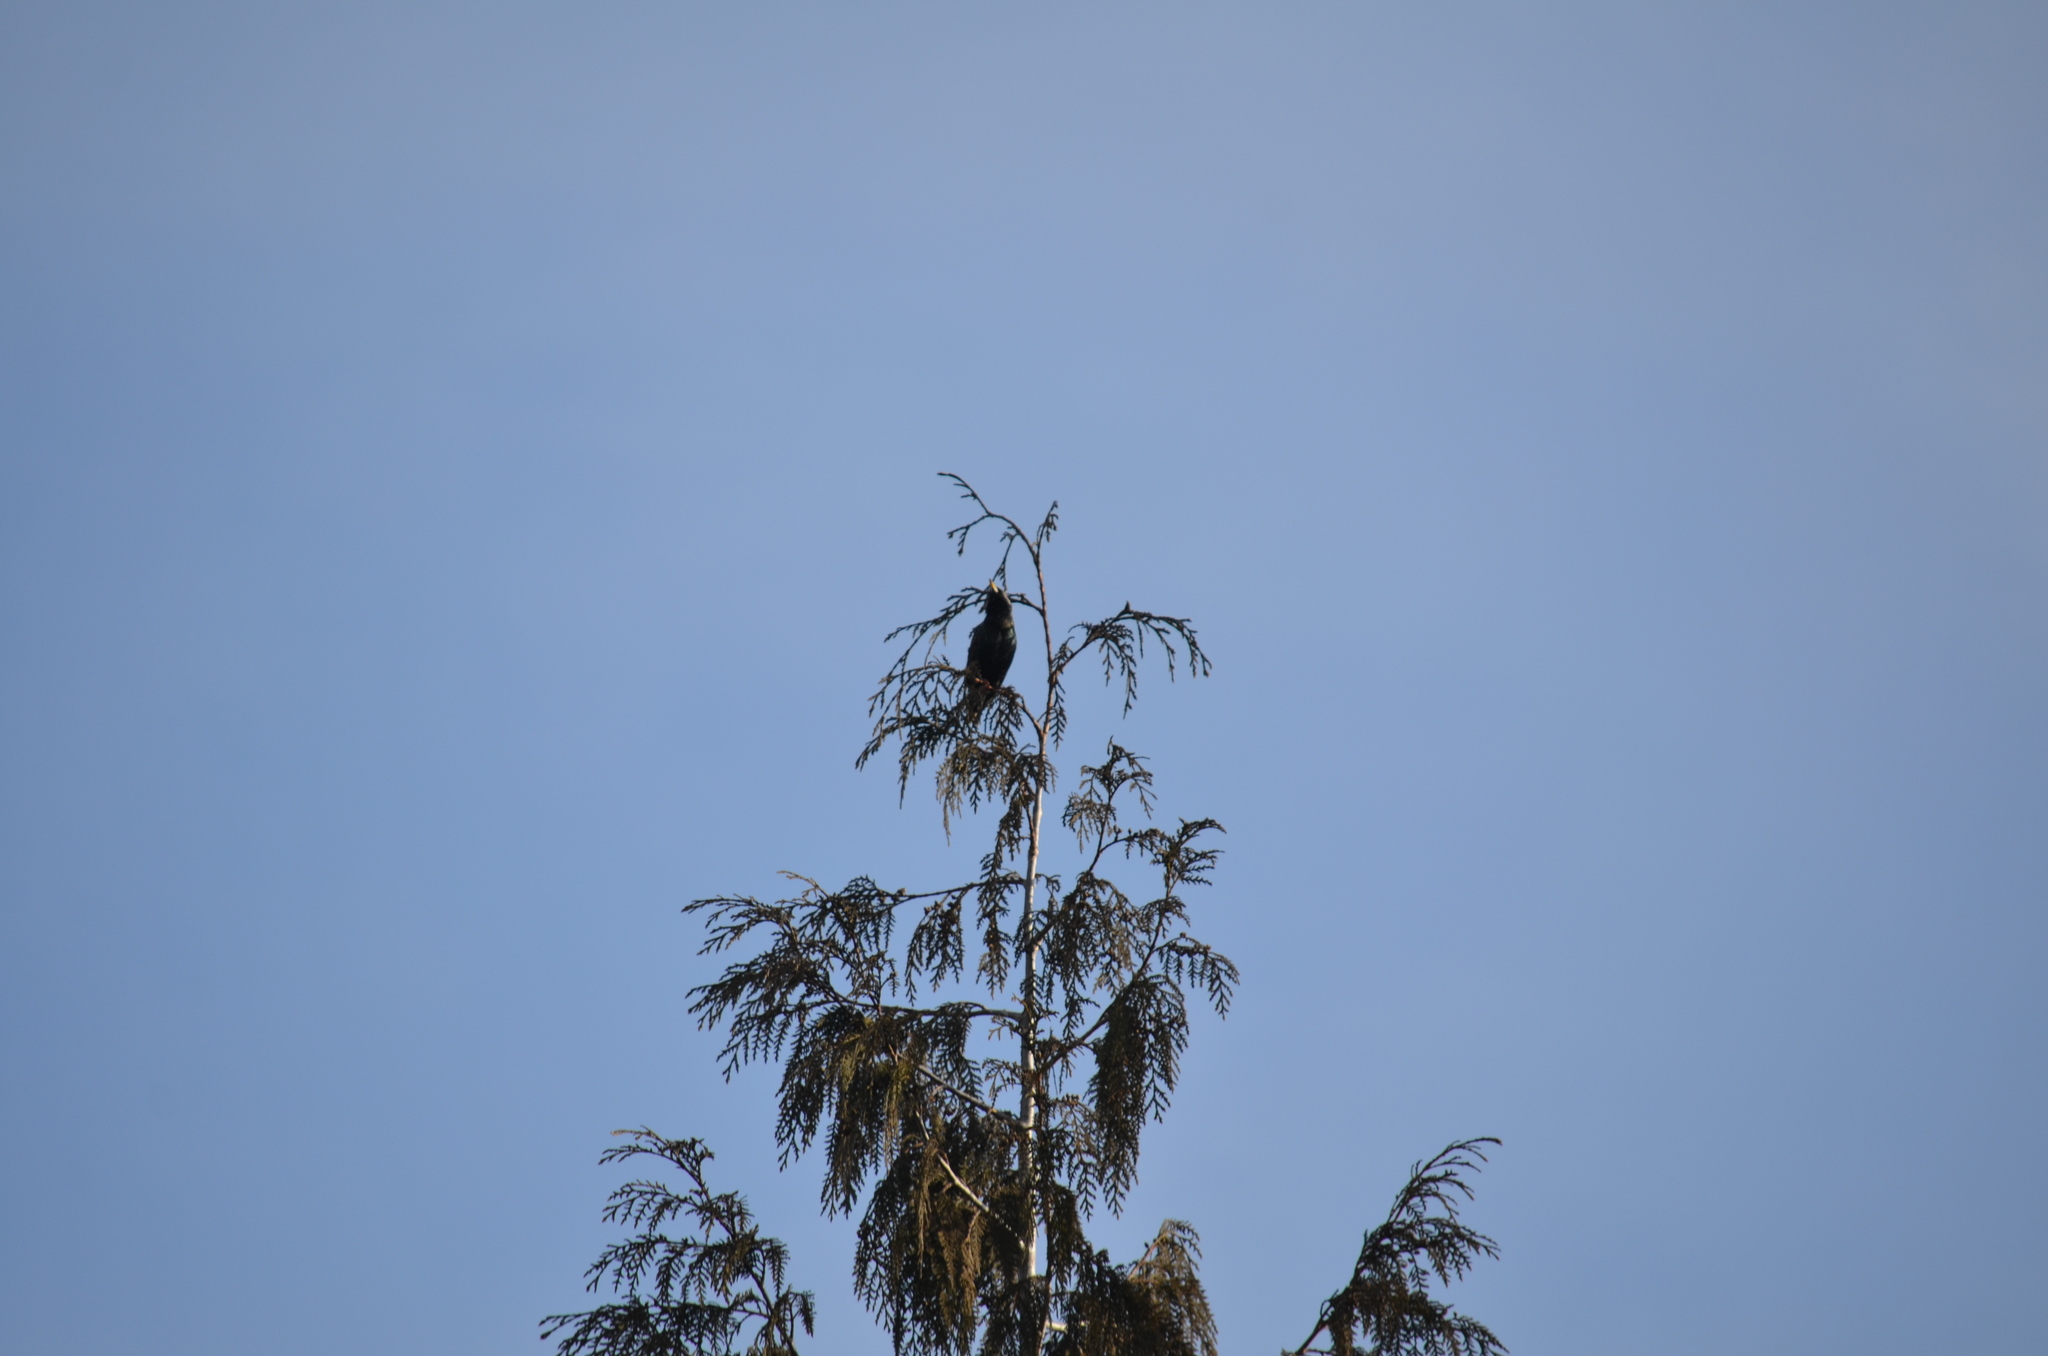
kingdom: Animalia
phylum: Chordata
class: Aves
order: Passeriformes
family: Sturnidae
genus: Sturnus
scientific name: Sturnus vulgaris
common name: Common starling
